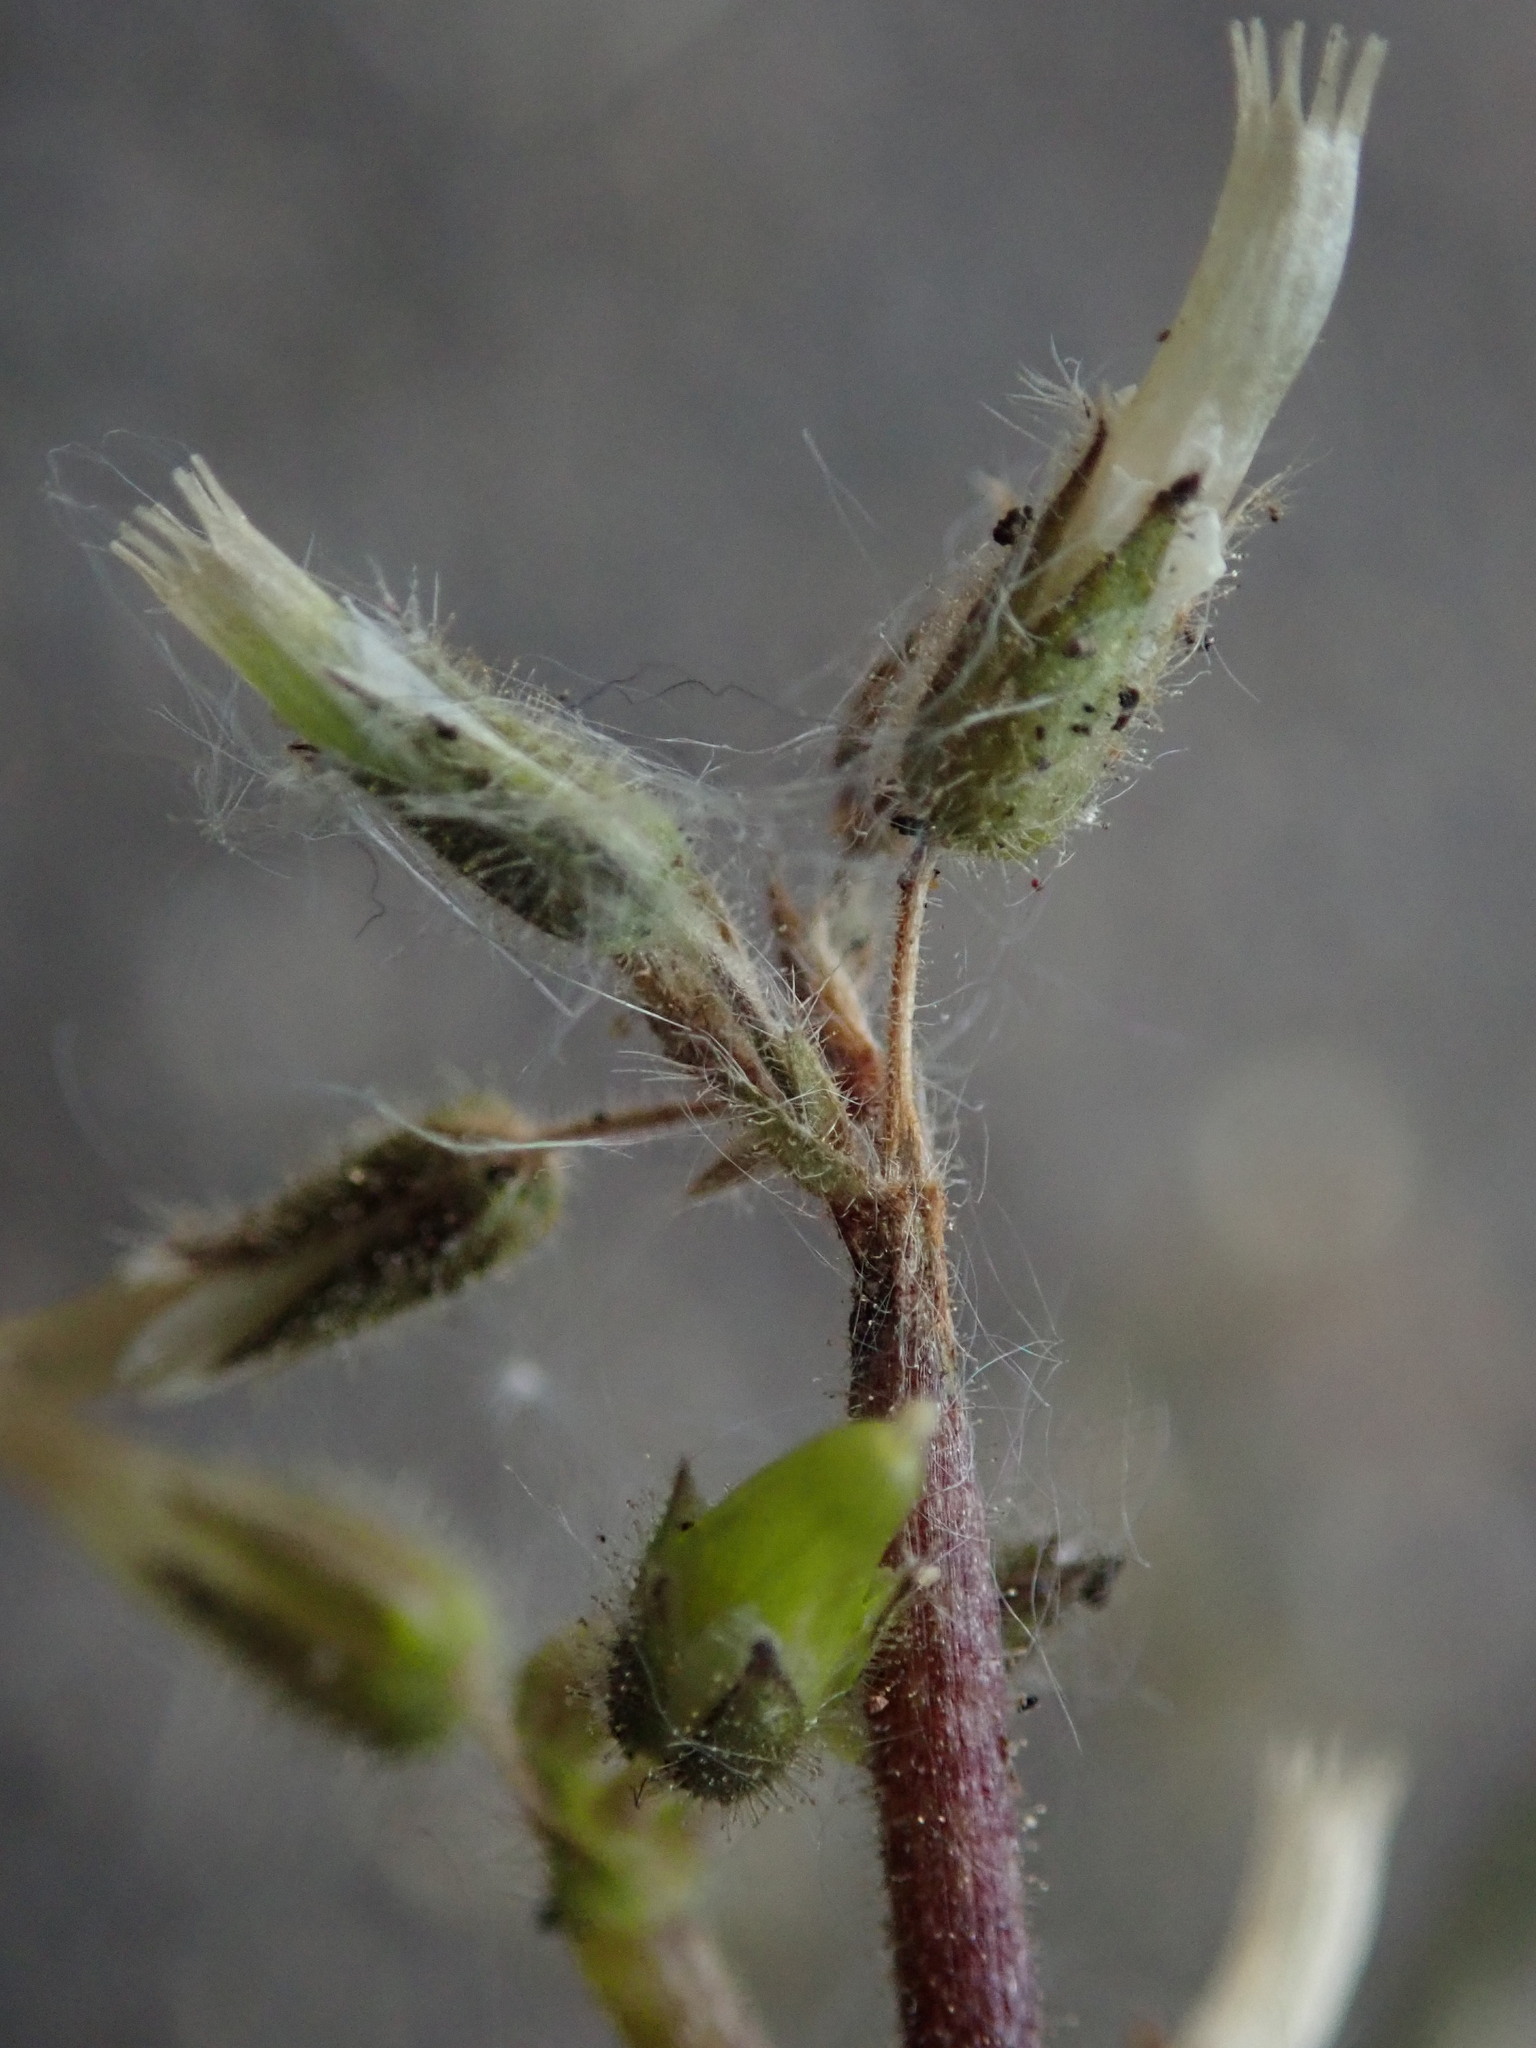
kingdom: Plantae
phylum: Tracheophyta
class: Magnoliopsida
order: Caryophyllales
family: Caryophyllaceae
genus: Cerastium
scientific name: Cerastium glomeratum
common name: Sticky chickweed
